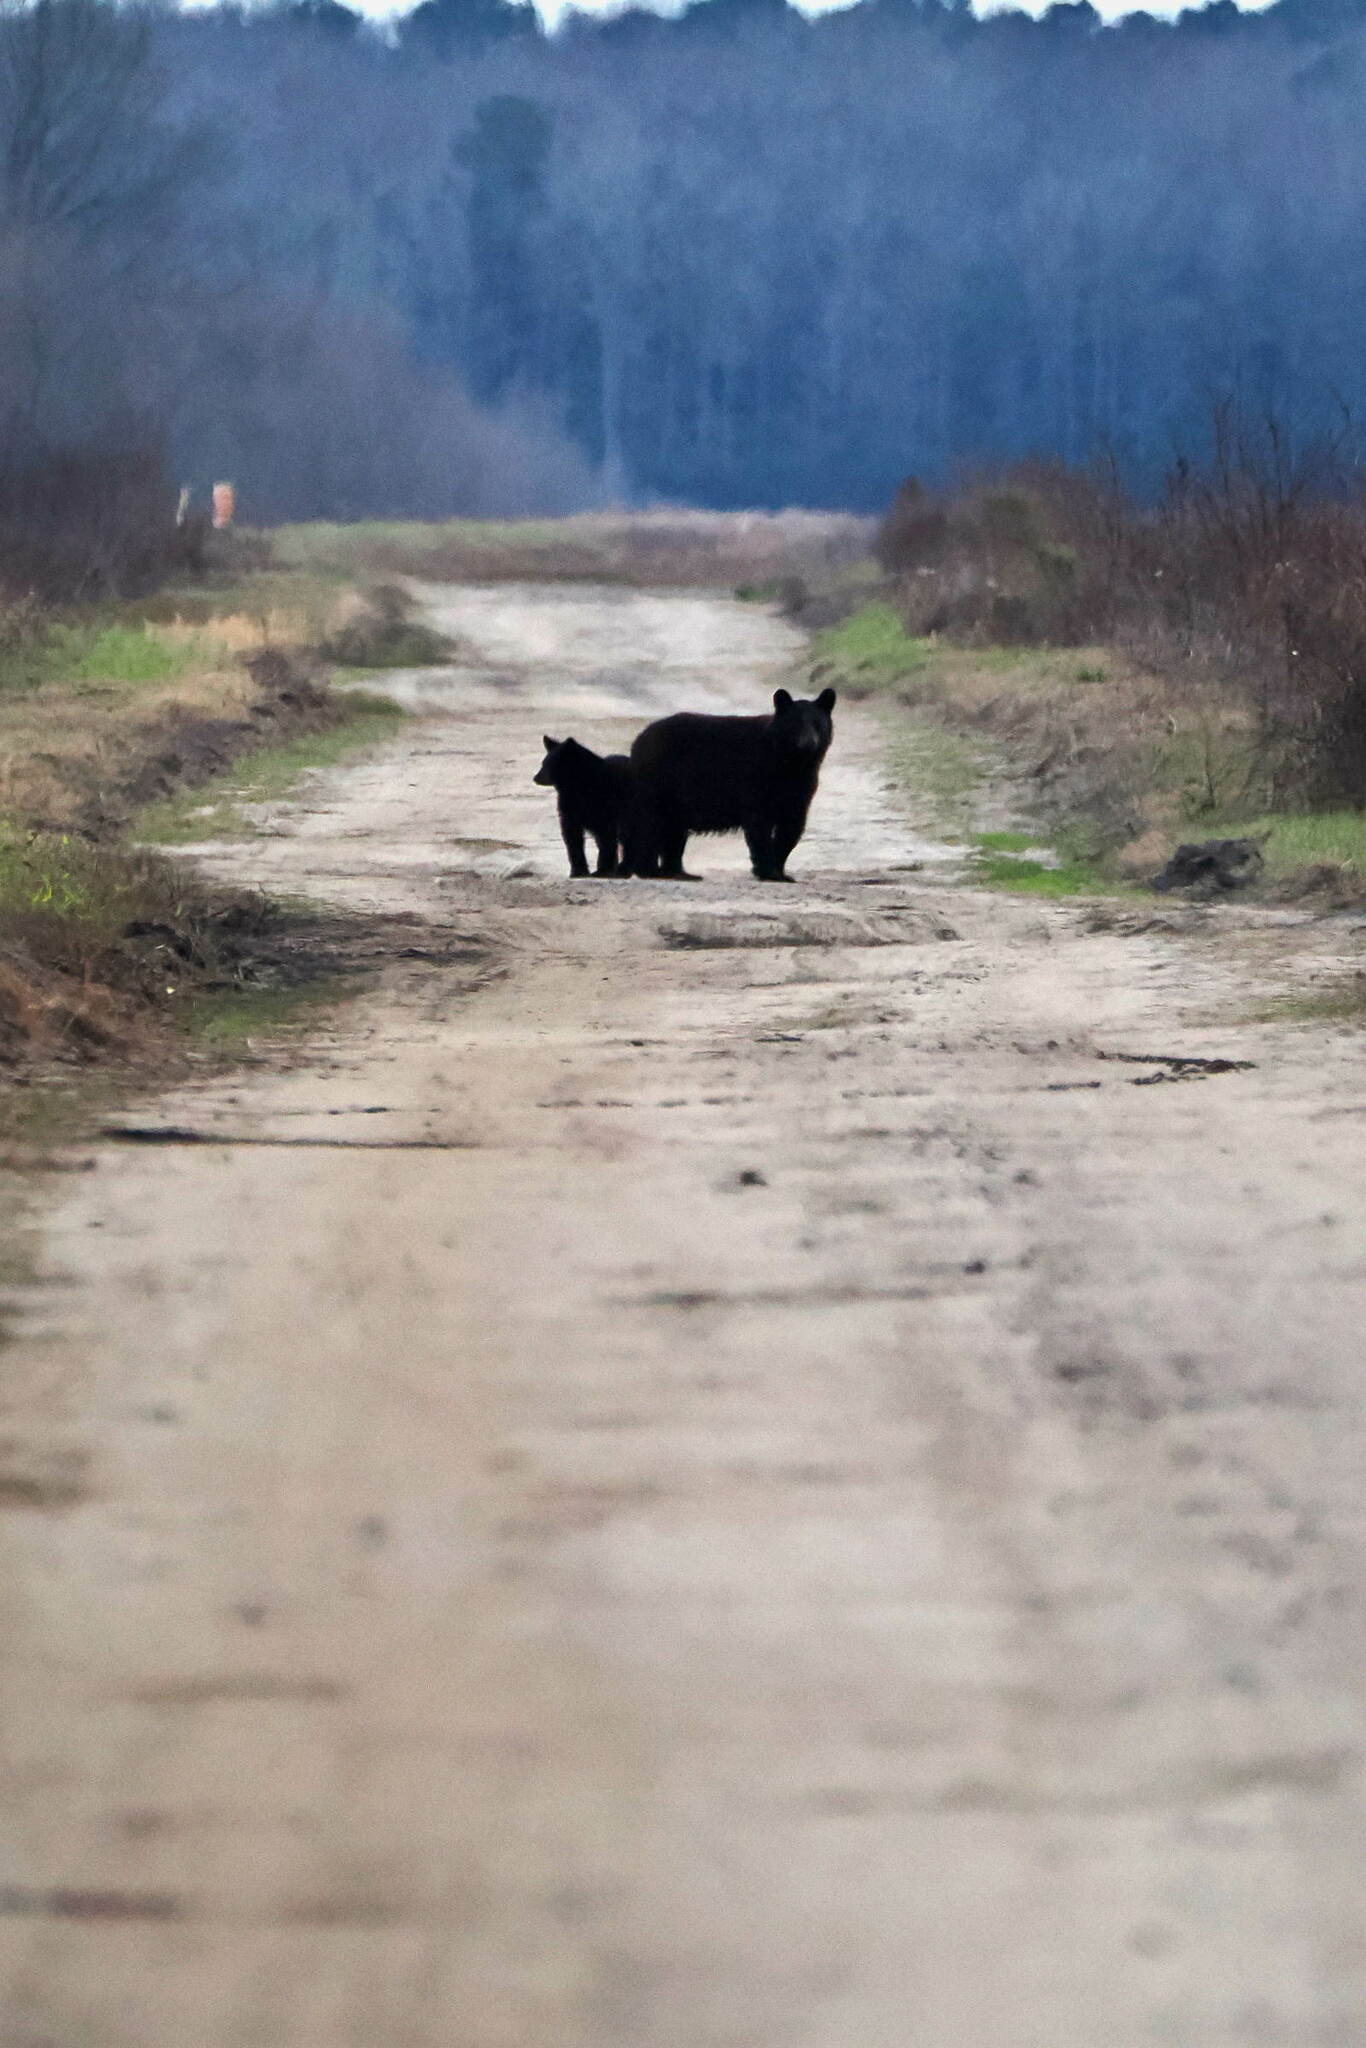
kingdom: Animalia
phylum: Chordata
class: Mammalia
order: Carnivora
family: Ursidae
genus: Ursus
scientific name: Ursus americanus
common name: American black bear
